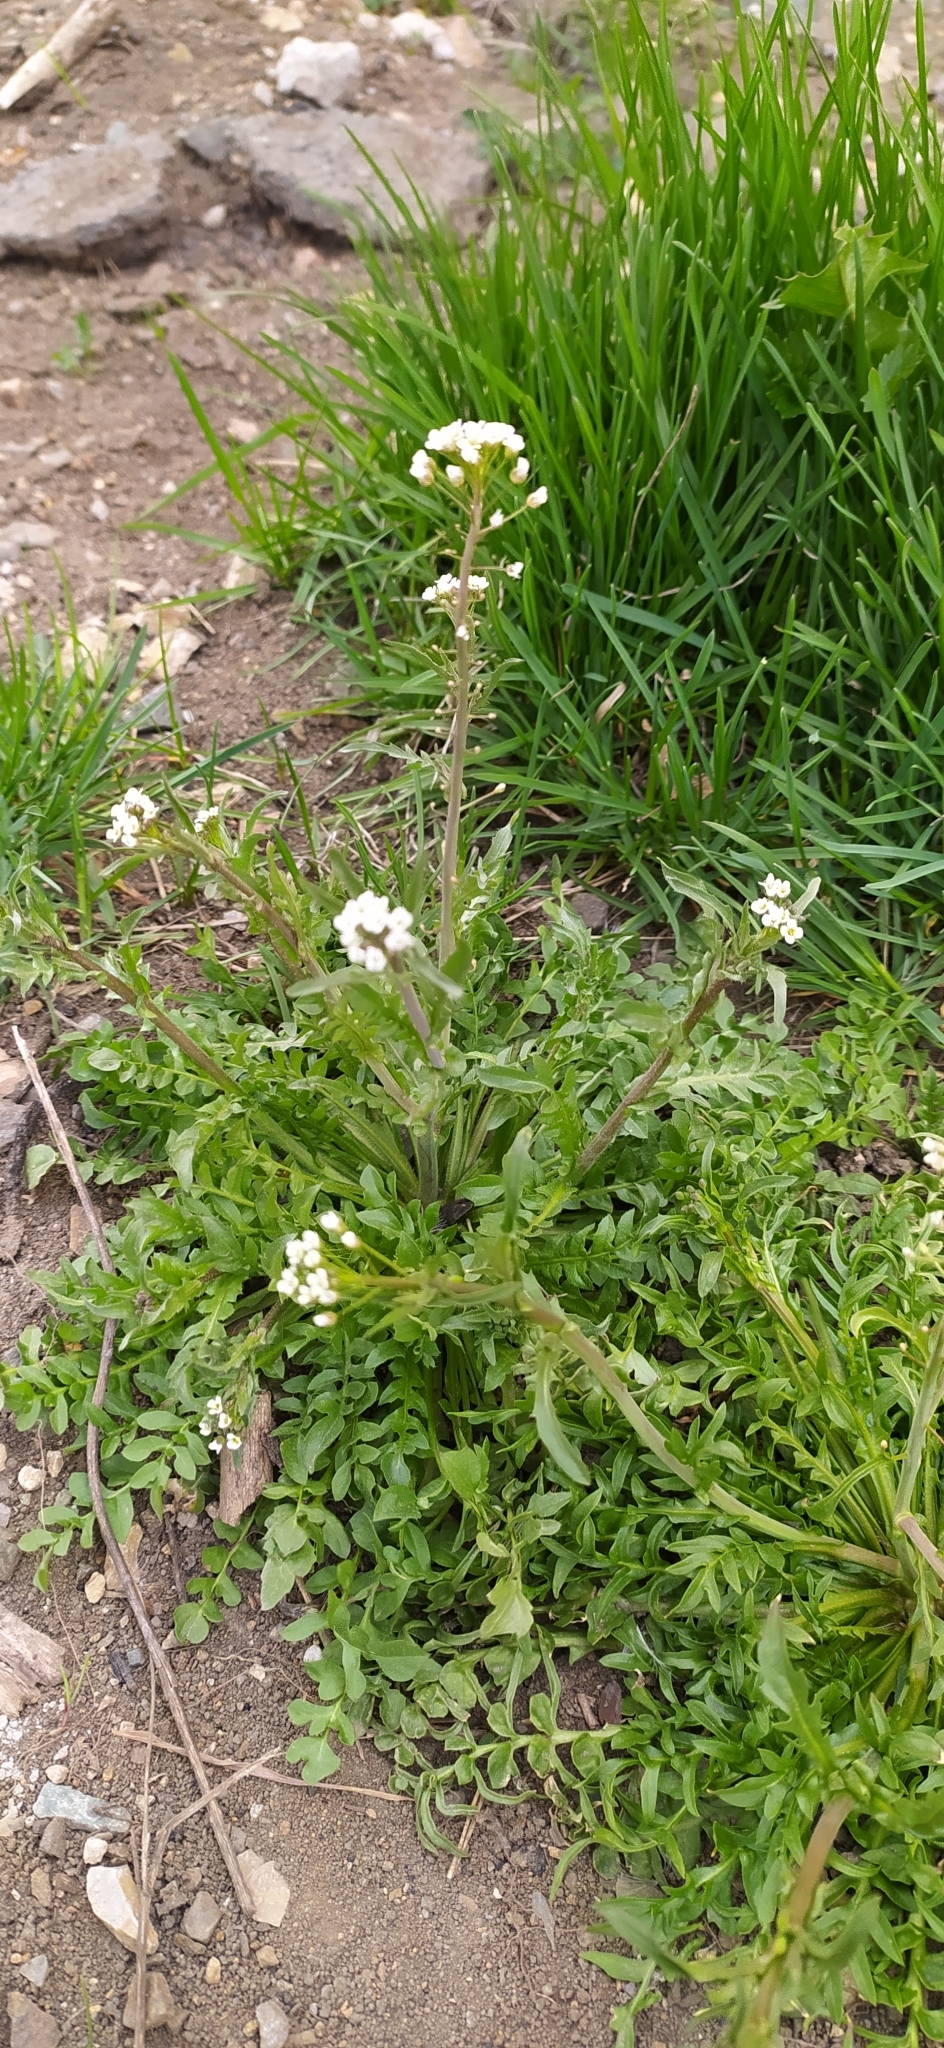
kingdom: Plantae
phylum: Tracheophyta
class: Magnoliopsida
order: Brassicales
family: Brassicaceae
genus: Capsella
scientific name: Capsella bursa-pastoris
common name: Shepherd's purse
